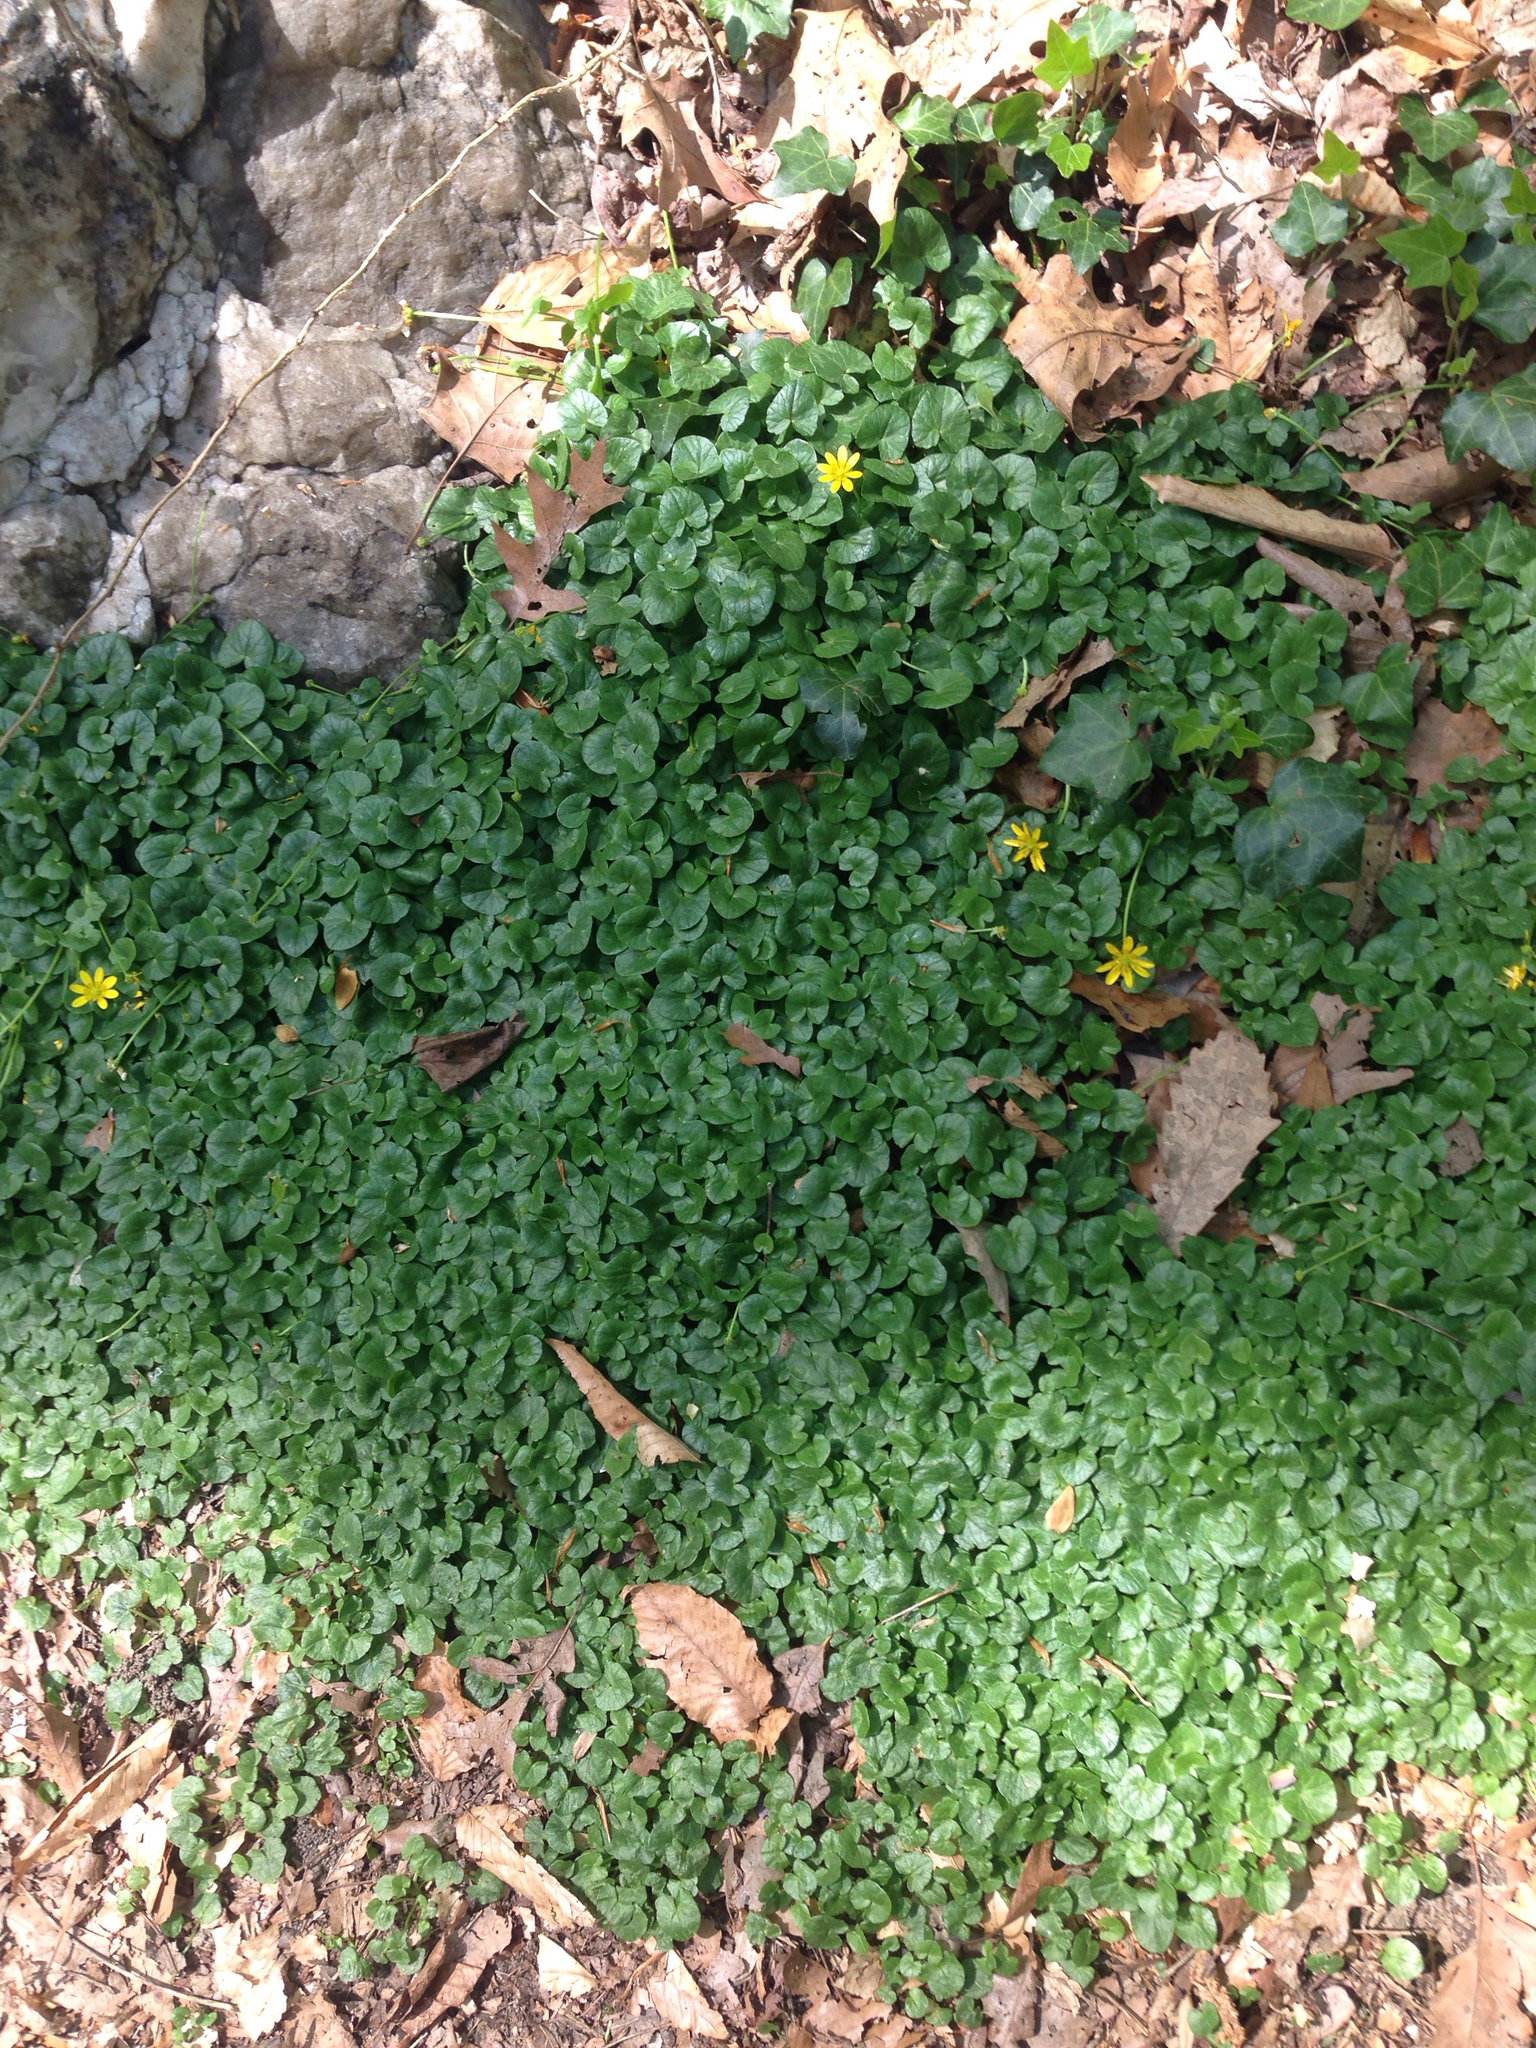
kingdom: Plantae
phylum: Tracheophyta
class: Magnoliopsida
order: Ranunculales
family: Ranunculaceae
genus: Ficaria
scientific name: Ficaria verna
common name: Lesser celandine
